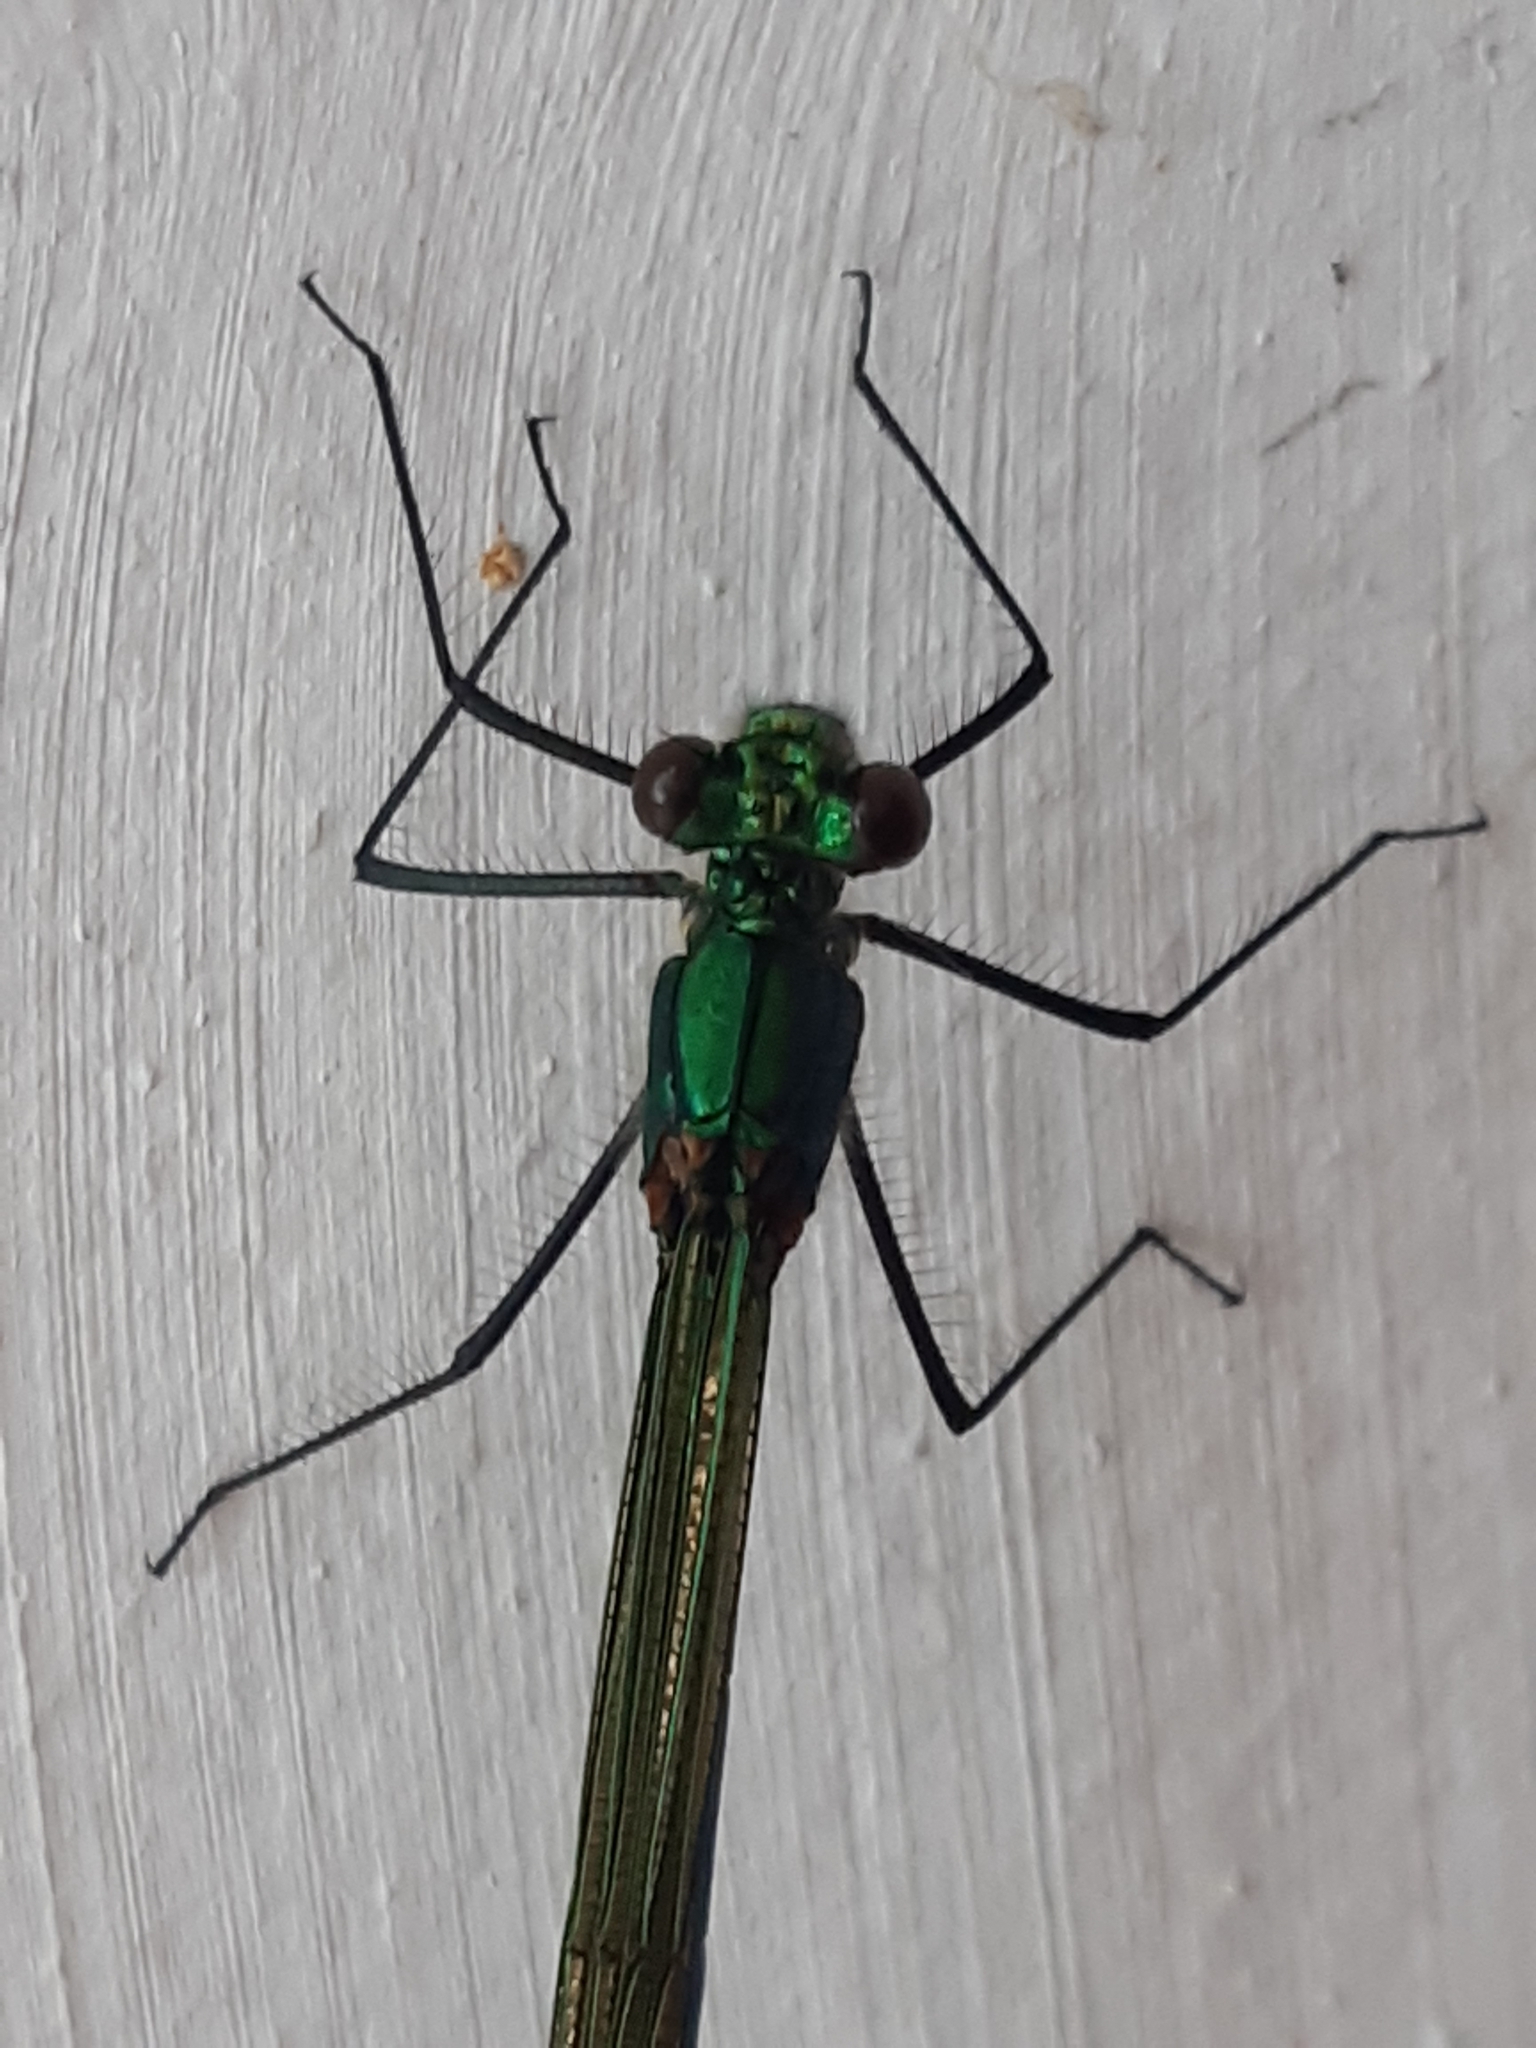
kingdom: Animalia
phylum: Arthropoda
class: Insecta
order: Odonata
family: Calopterygidae
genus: Calopteryx
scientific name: Calopteryx virgo
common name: Beautiful demoiselle
